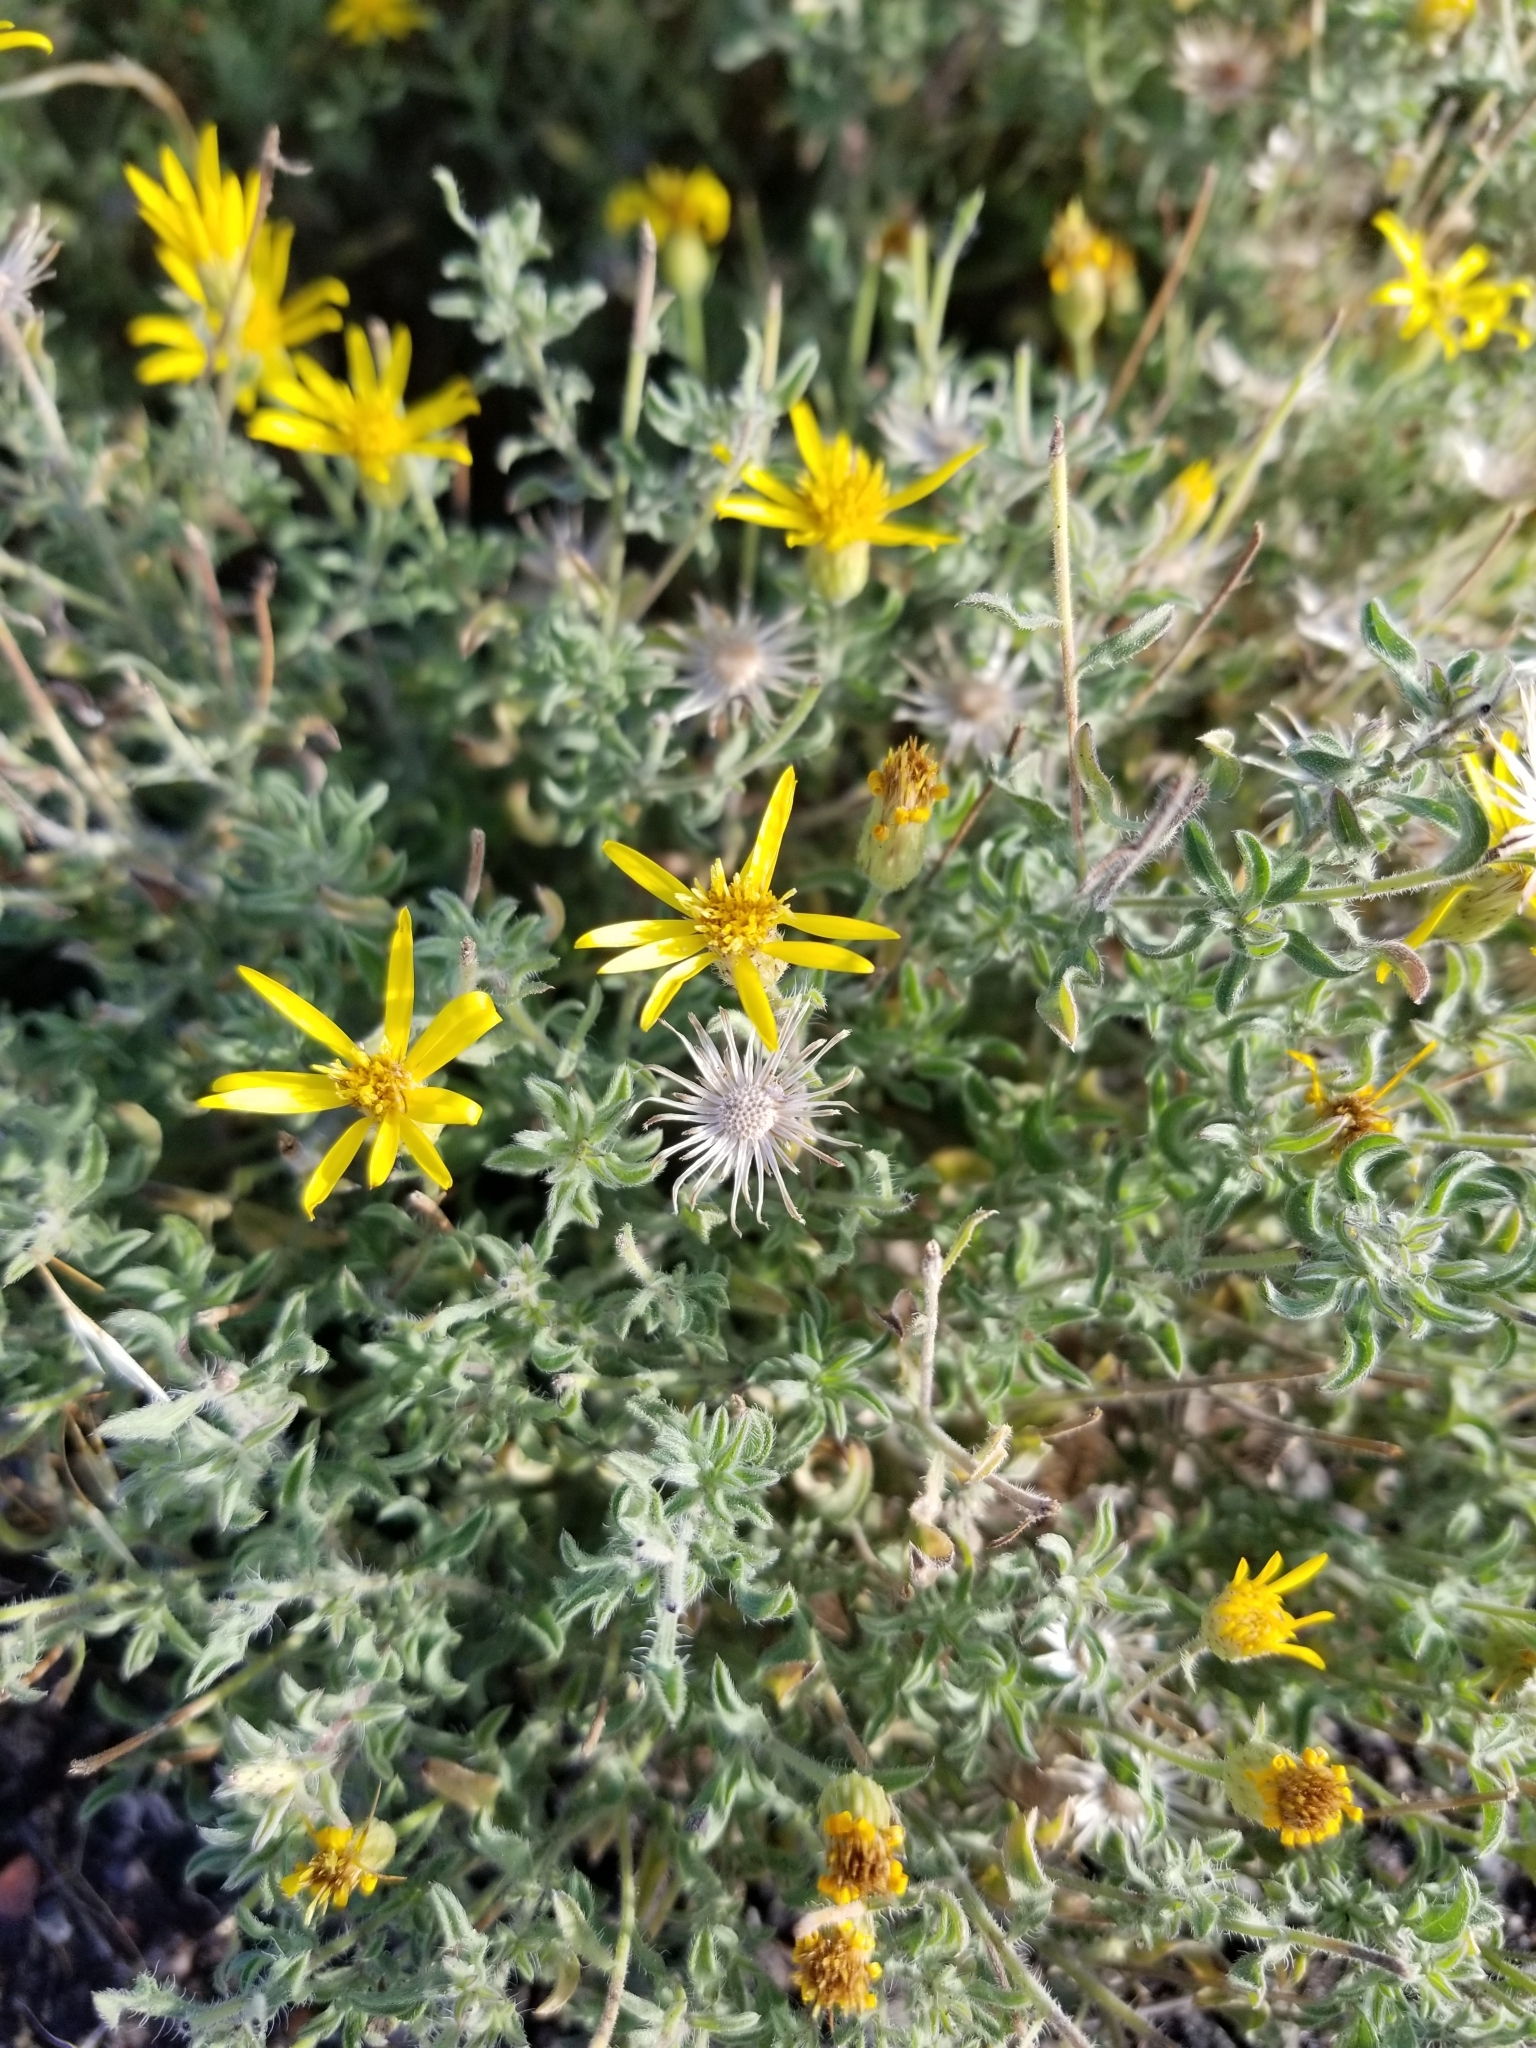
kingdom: Plantae
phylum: Tracheophyta
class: Magnoliopsida
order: Asterales
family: Asteraceae
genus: Heterotheca
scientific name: Heterotheca villosa
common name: Hairy false goldenaster
